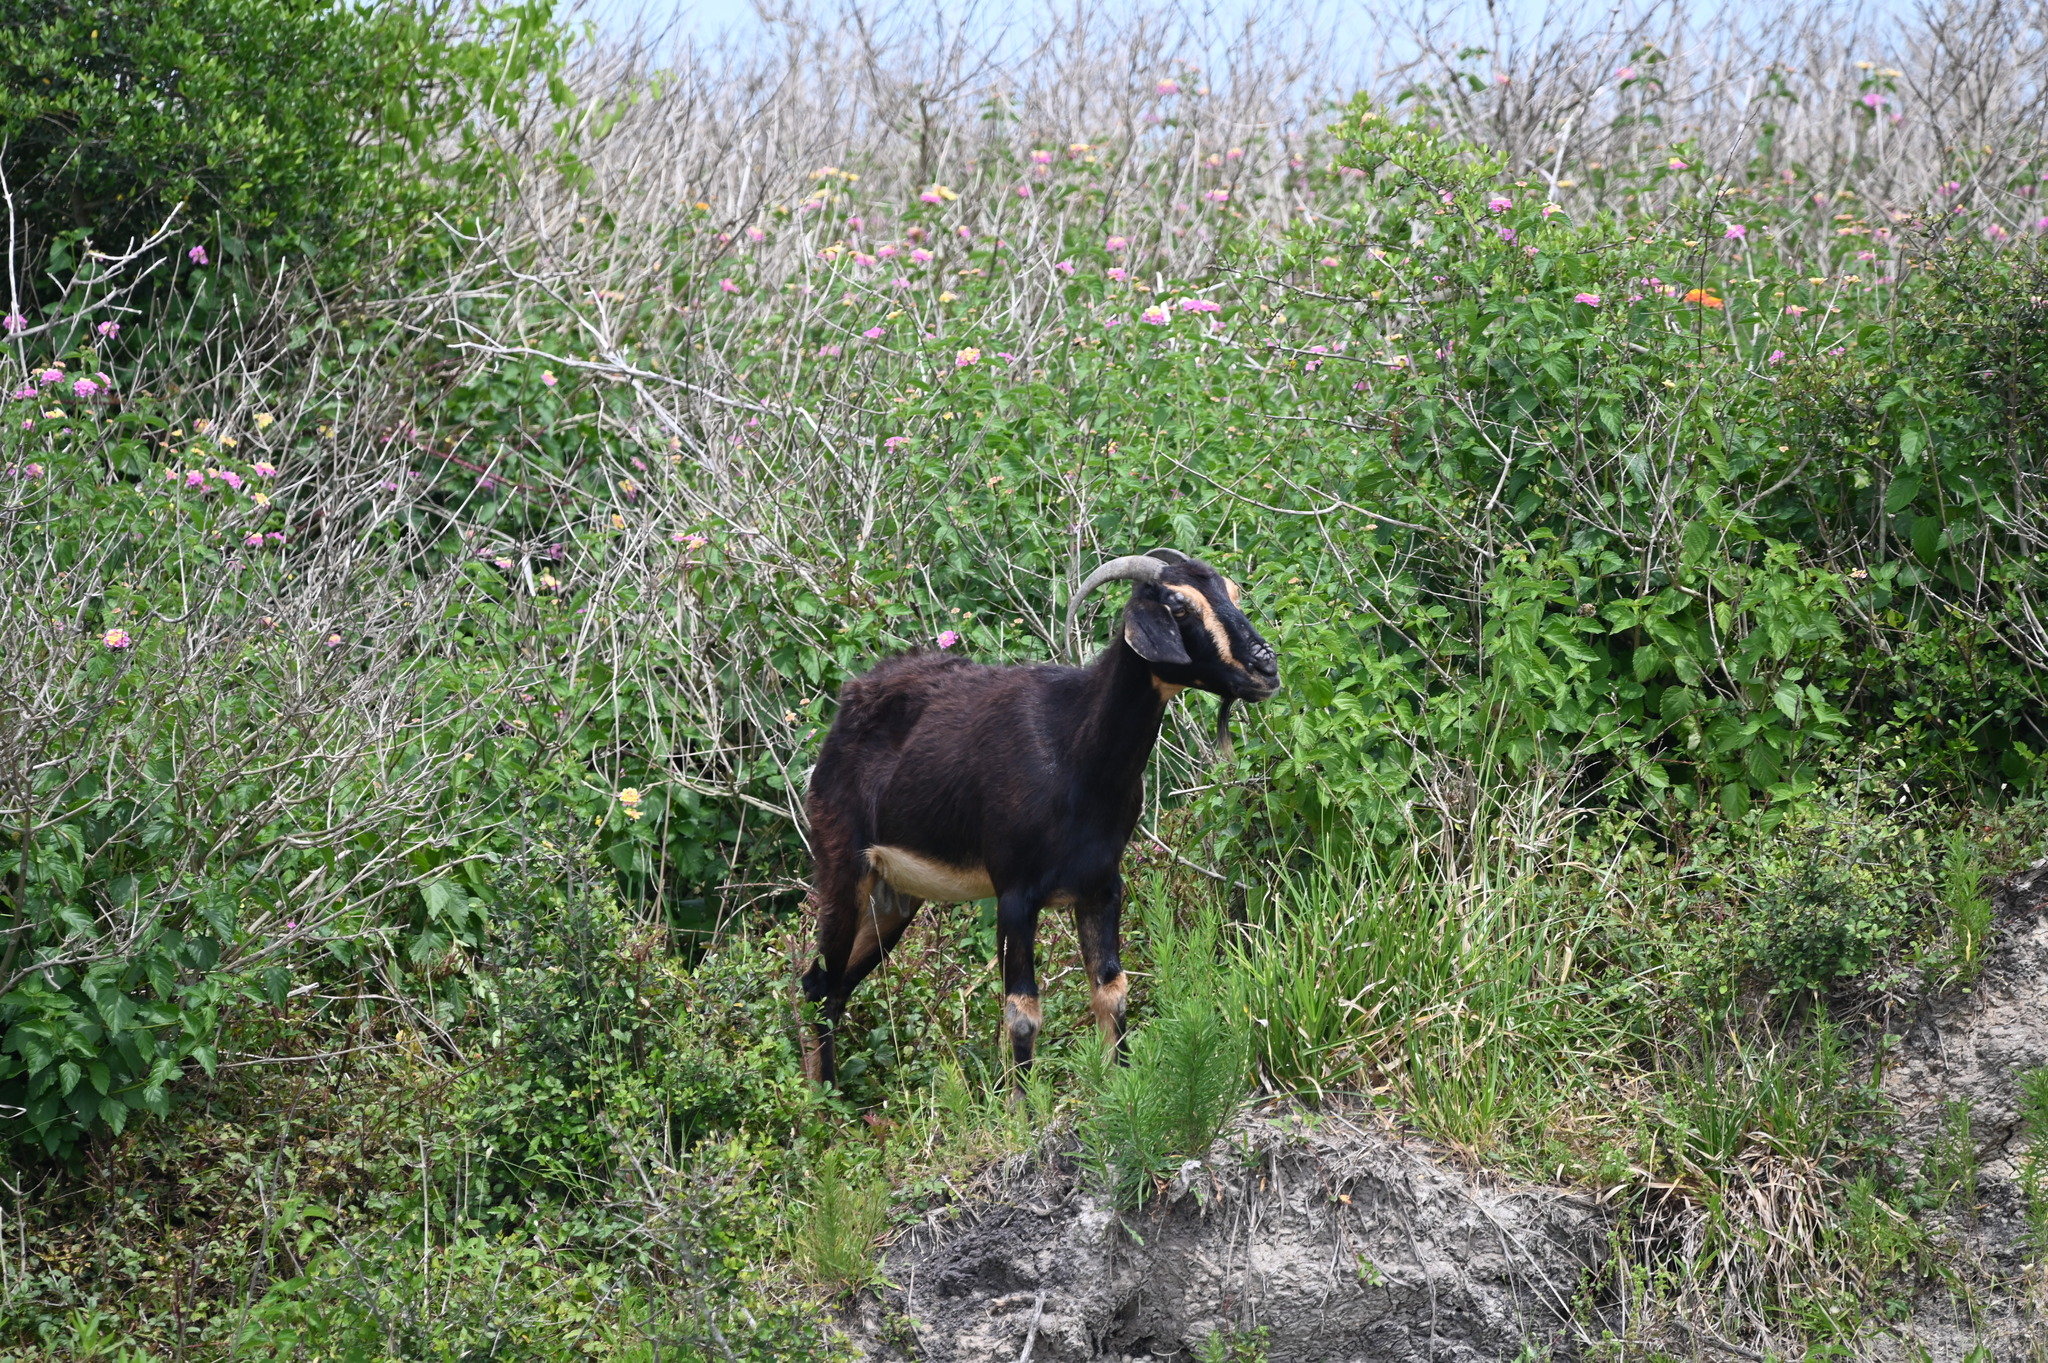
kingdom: Animalia
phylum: Chordata
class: Mammalia
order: Artiodactyla
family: Bovidae
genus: Capra
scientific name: Capra hircus
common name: Domestic goat
